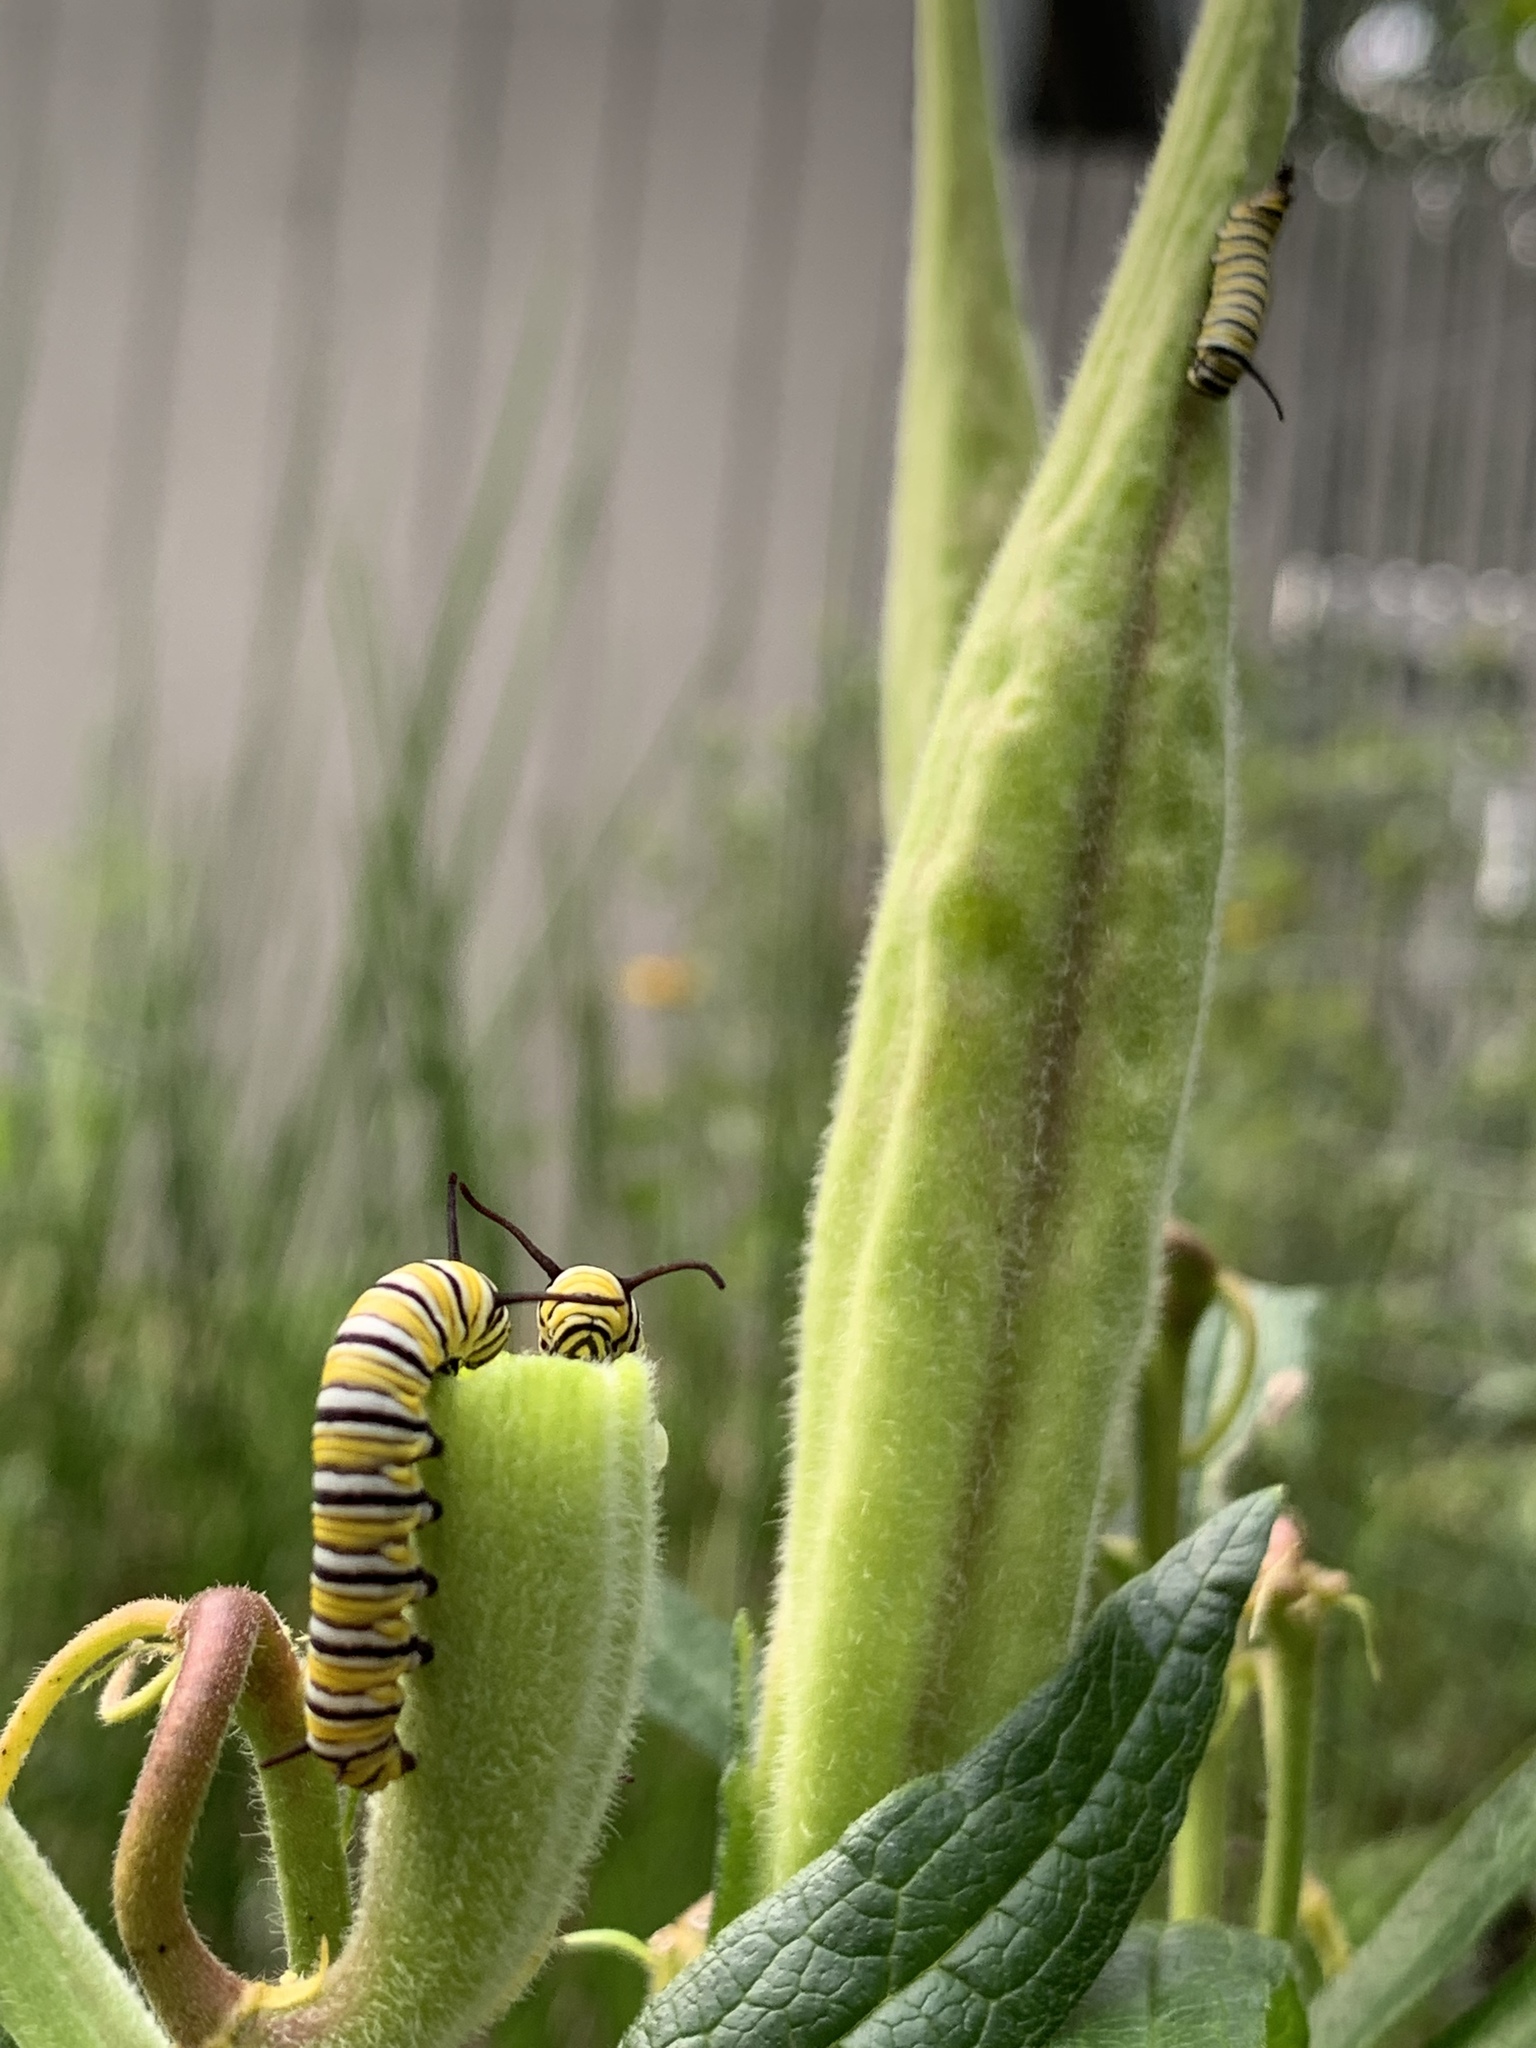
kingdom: Animalia
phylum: Arthropoda
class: Insecta
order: Lepidoptera
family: Nymphalidae
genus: Danaus
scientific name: Danaus plexippus
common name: Monarch
